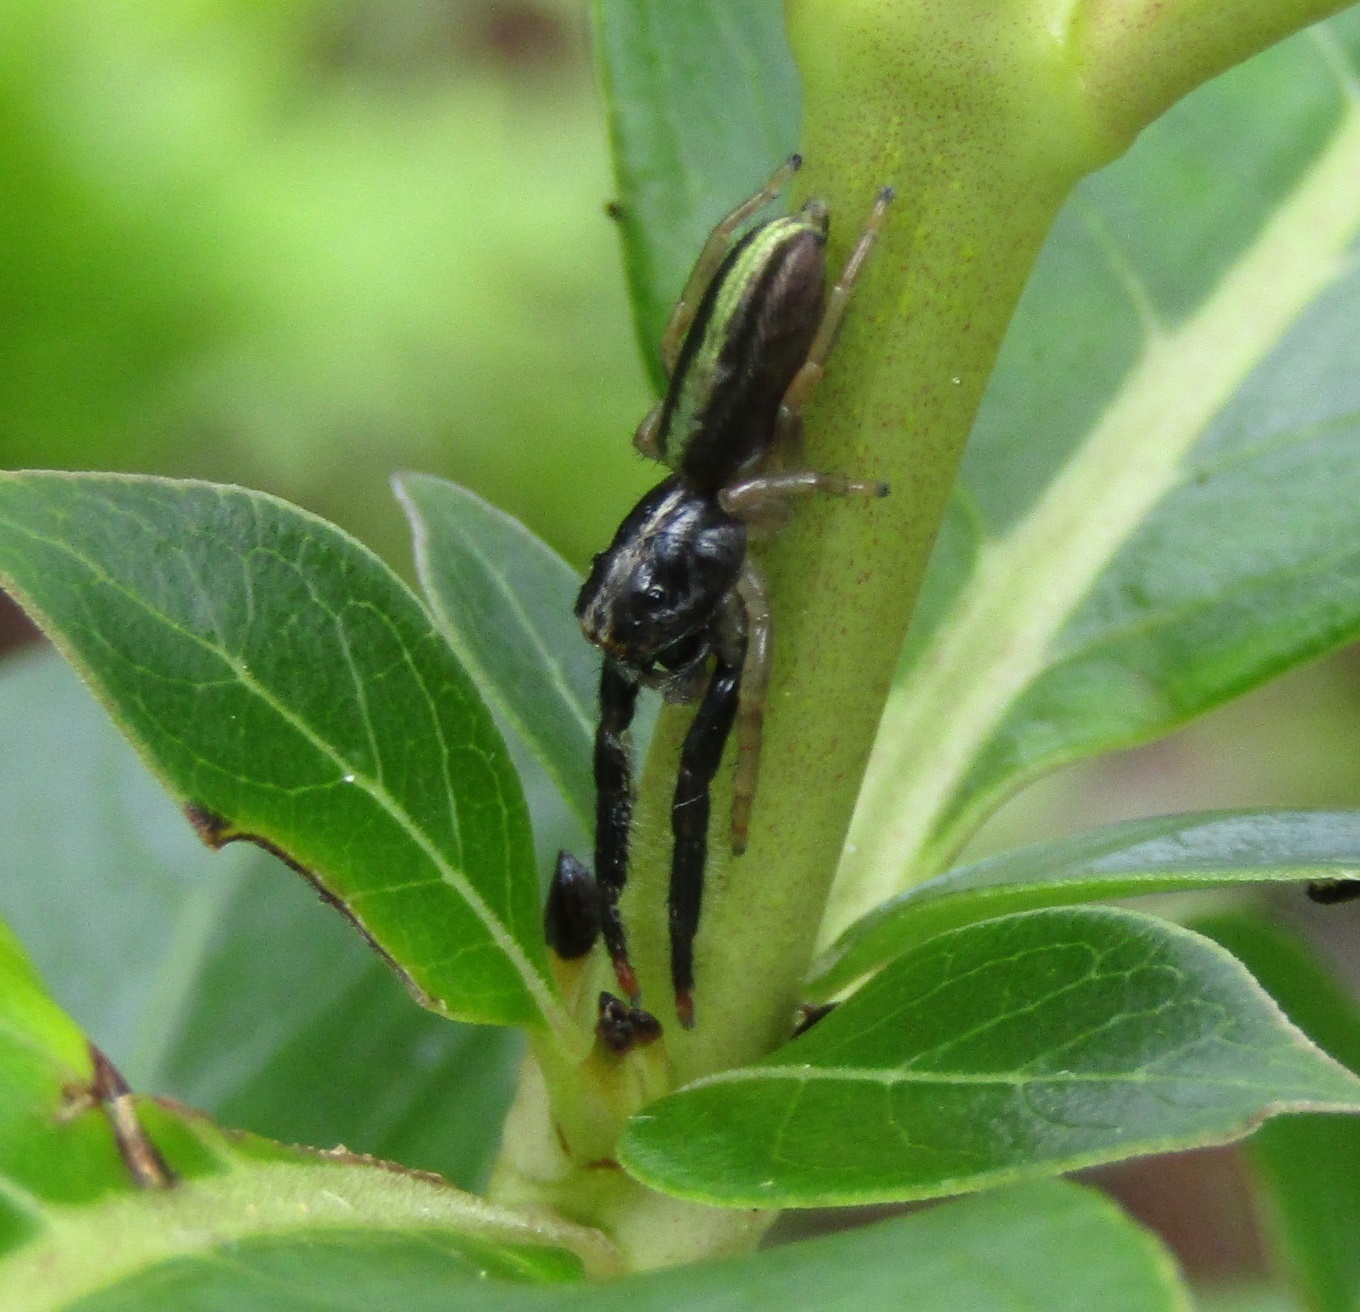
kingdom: Animalia
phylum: Arthropoda
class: Arachnida
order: Araneae
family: Salticidae
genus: Trite
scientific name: Trite planiceps
